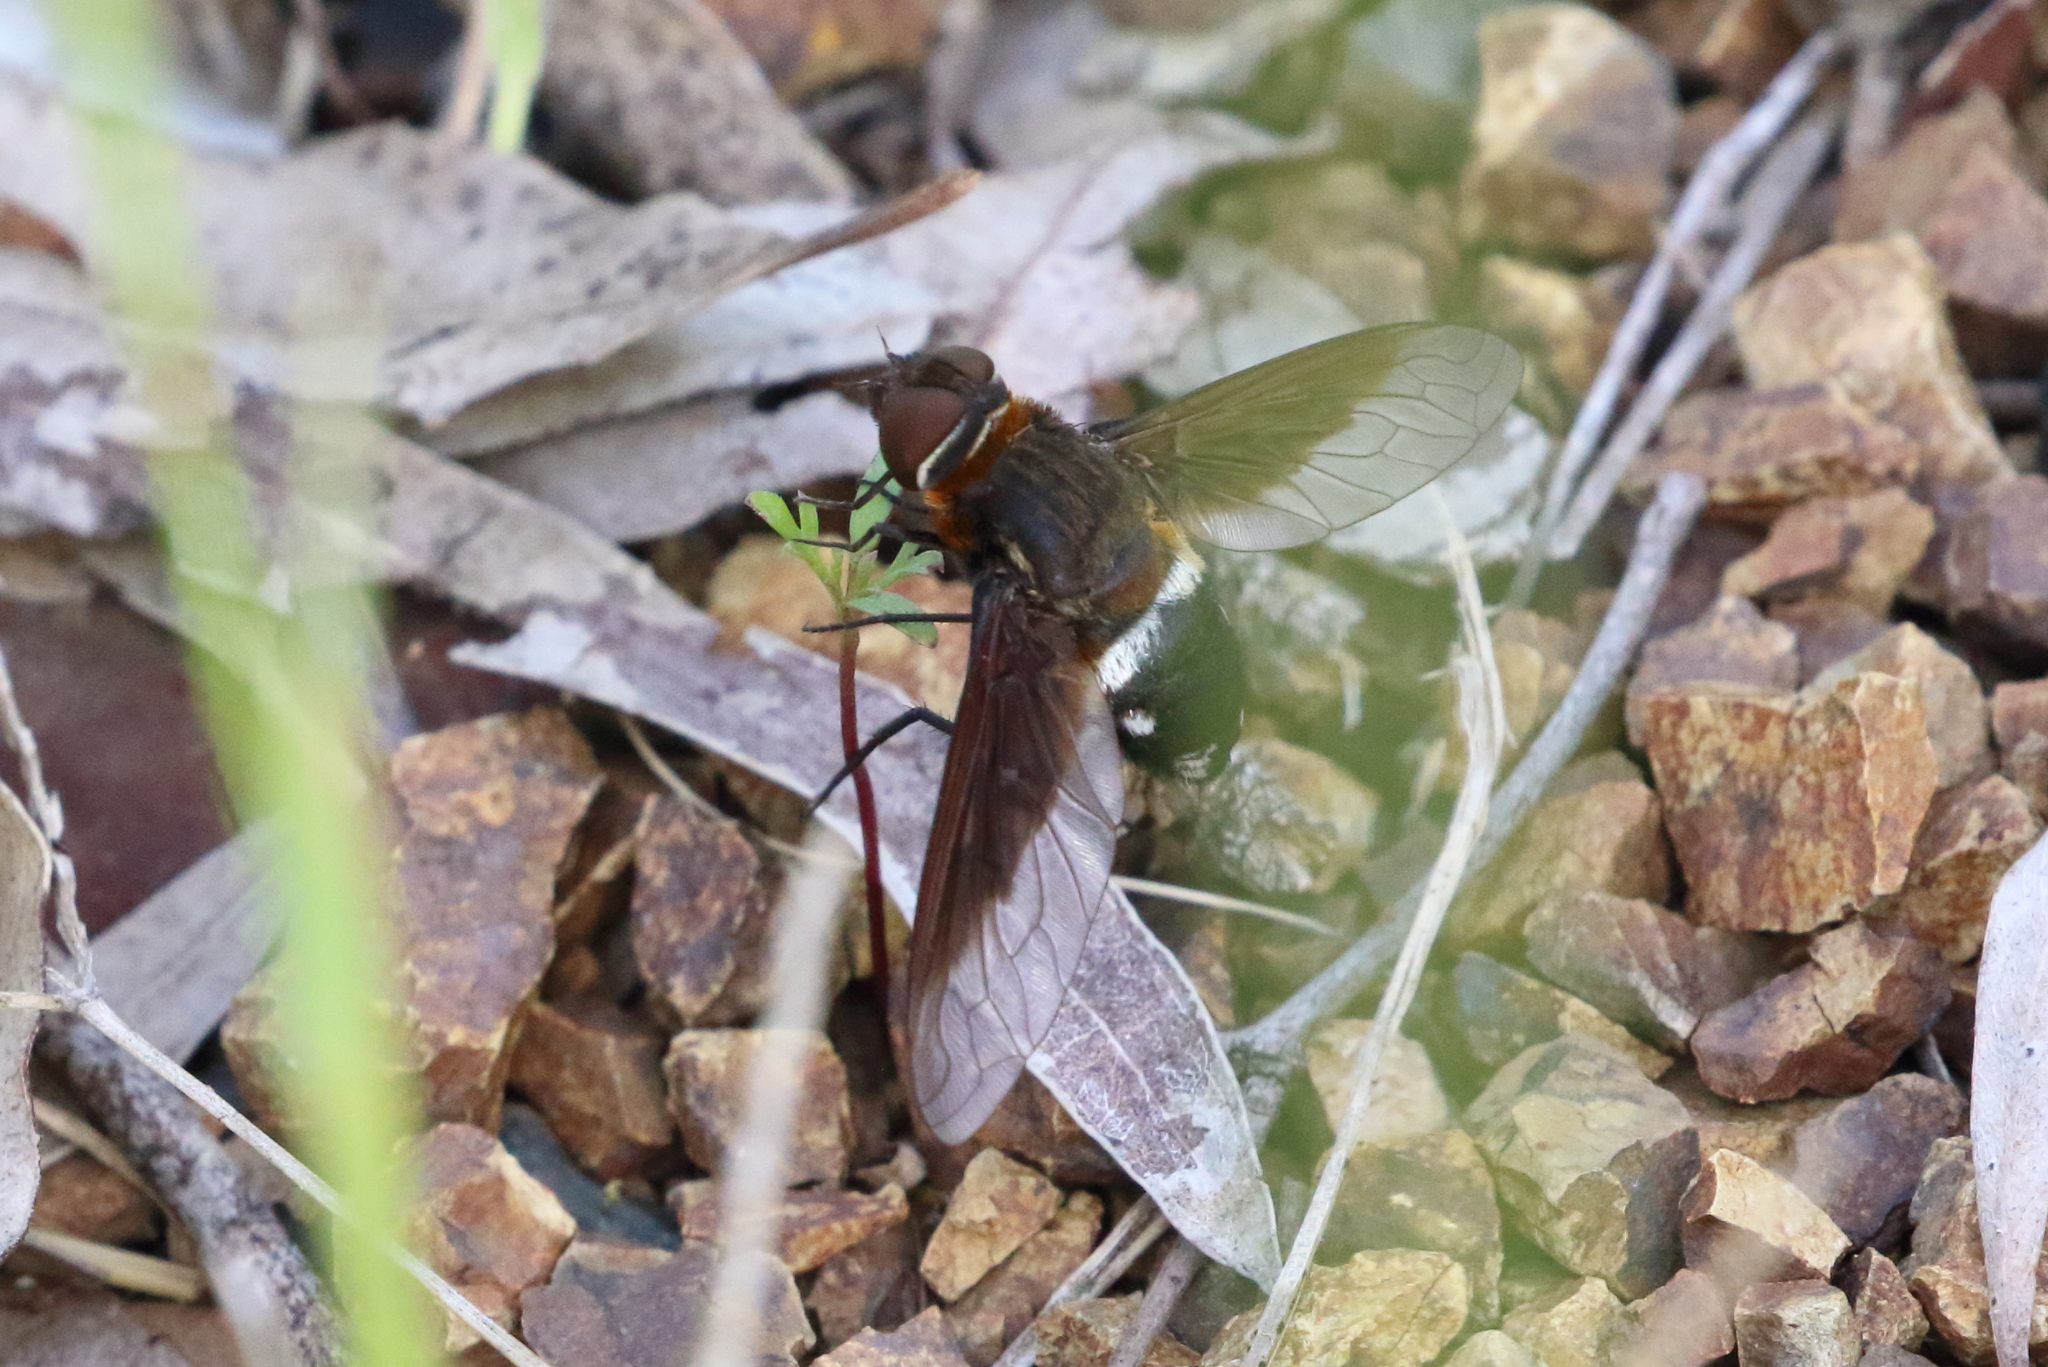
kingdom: Animalia
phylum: Arthropoda
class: Insecta
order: Diptera
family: Bombyliidae
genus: Ligyra
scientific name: Ligyra inquinita
